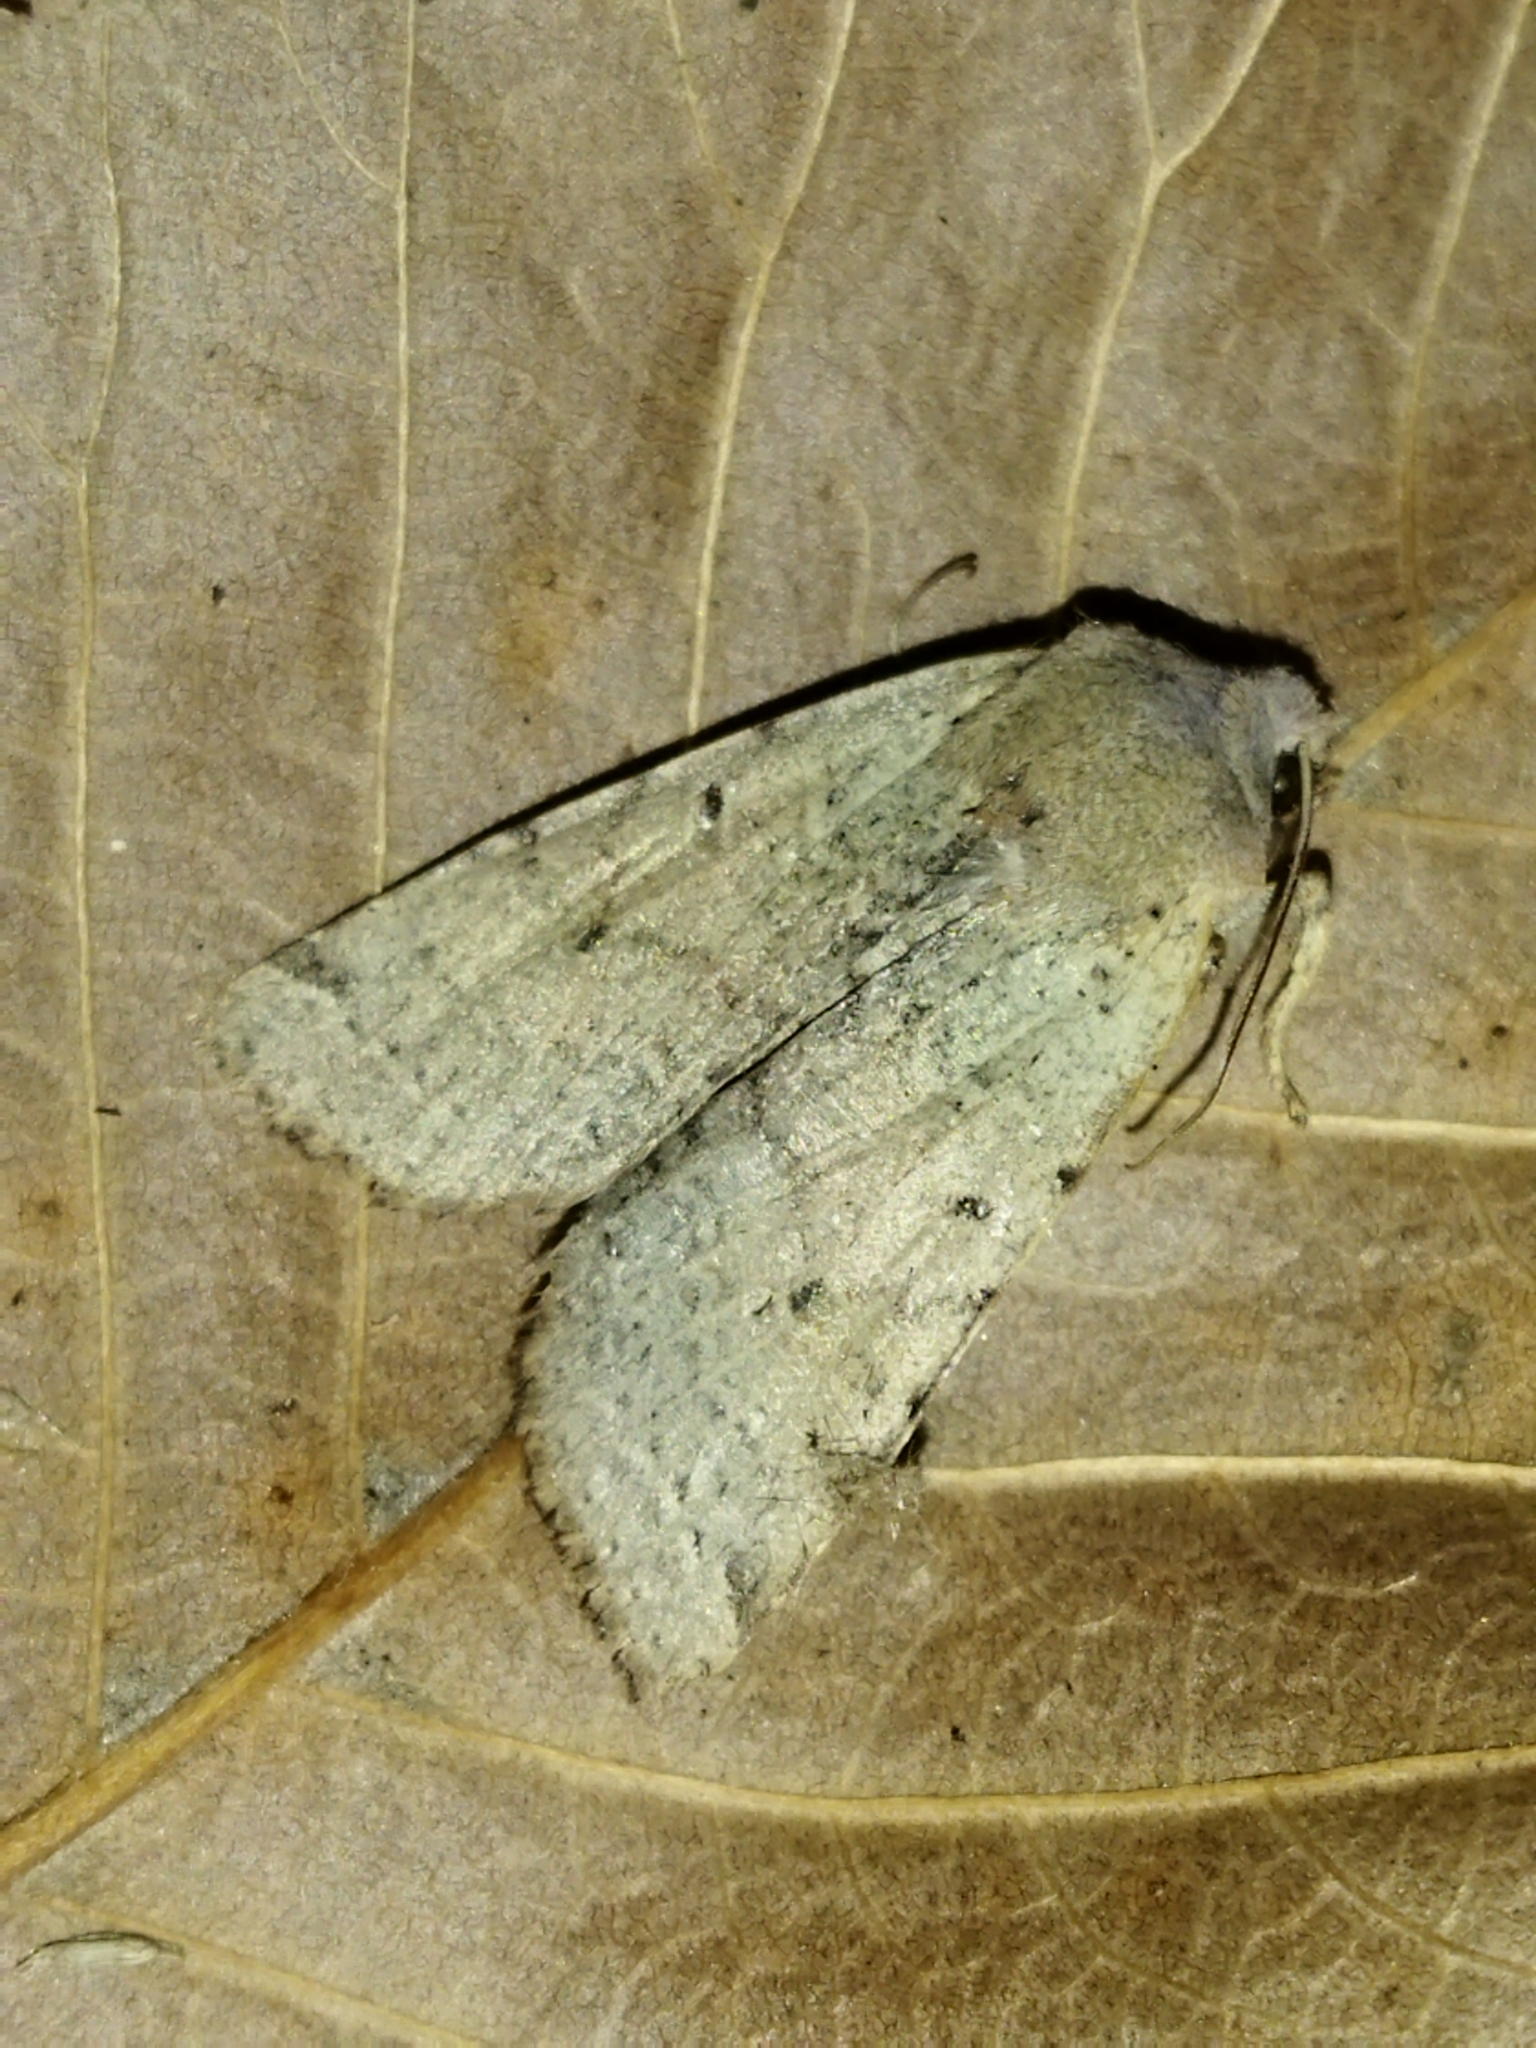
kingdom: Animalia
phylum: Arthropoda
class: Insecta
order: Lepidoptera
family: Noctuidae
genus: Agrochola
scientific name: Agrochola lychnidis
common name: Beaded chestnut
